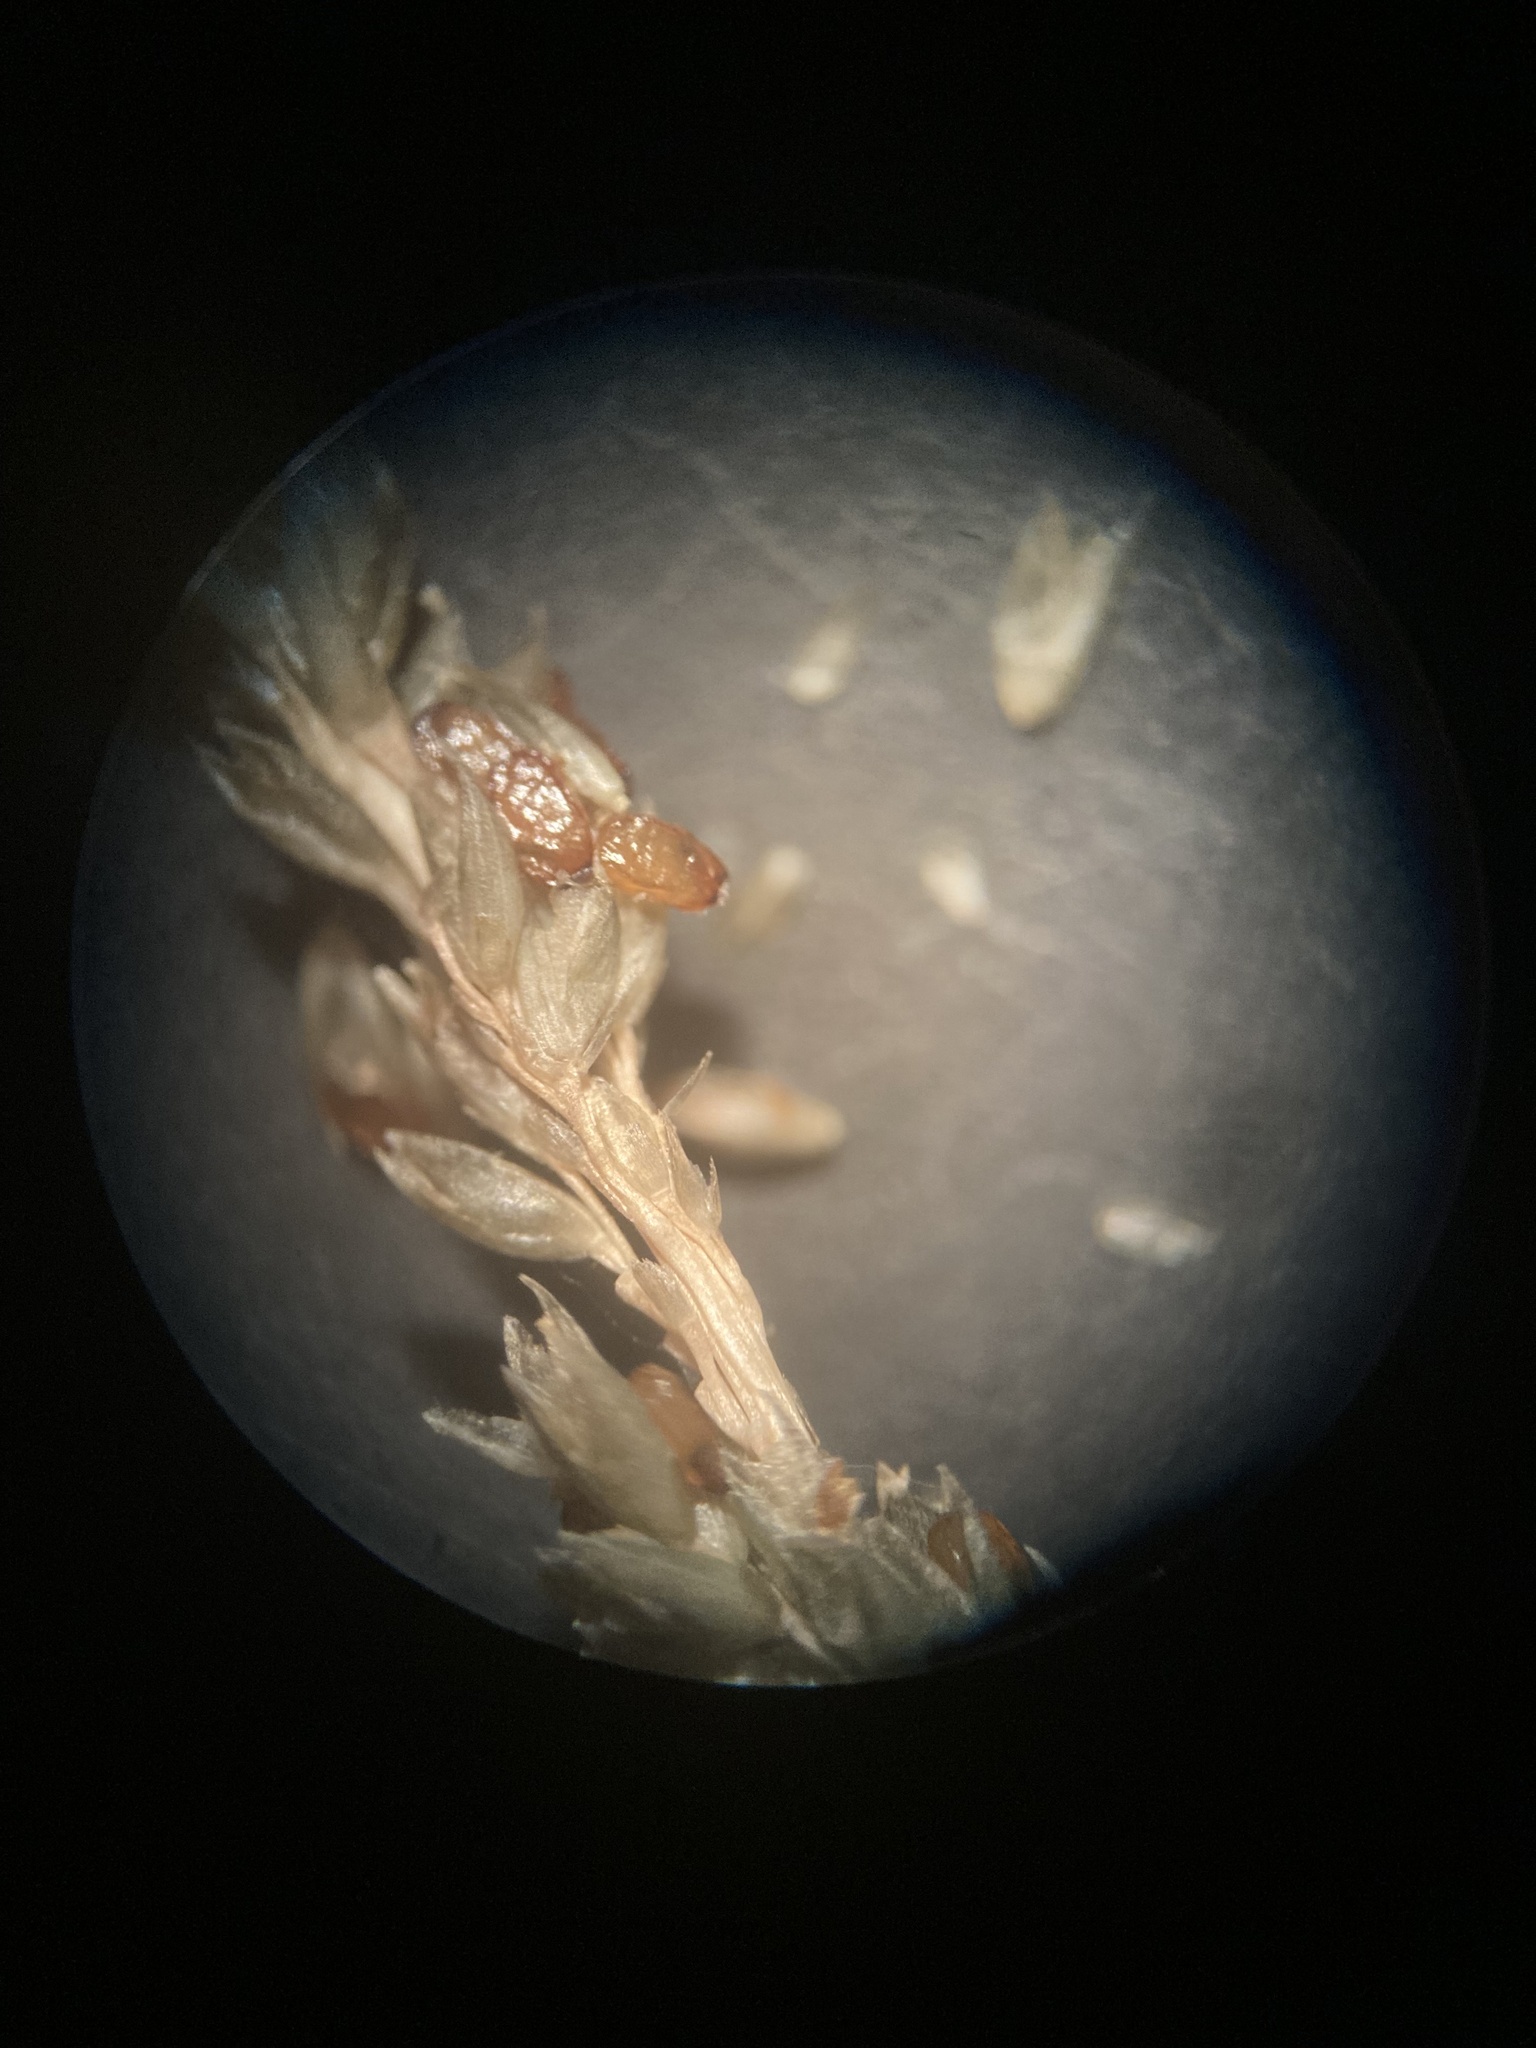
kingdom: Plantae
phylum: Tracheophyta
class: Liliopsida
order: Poales
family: Poaceae
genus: Sporobolus
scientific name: Sporobolus indicus
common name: Smut grass
